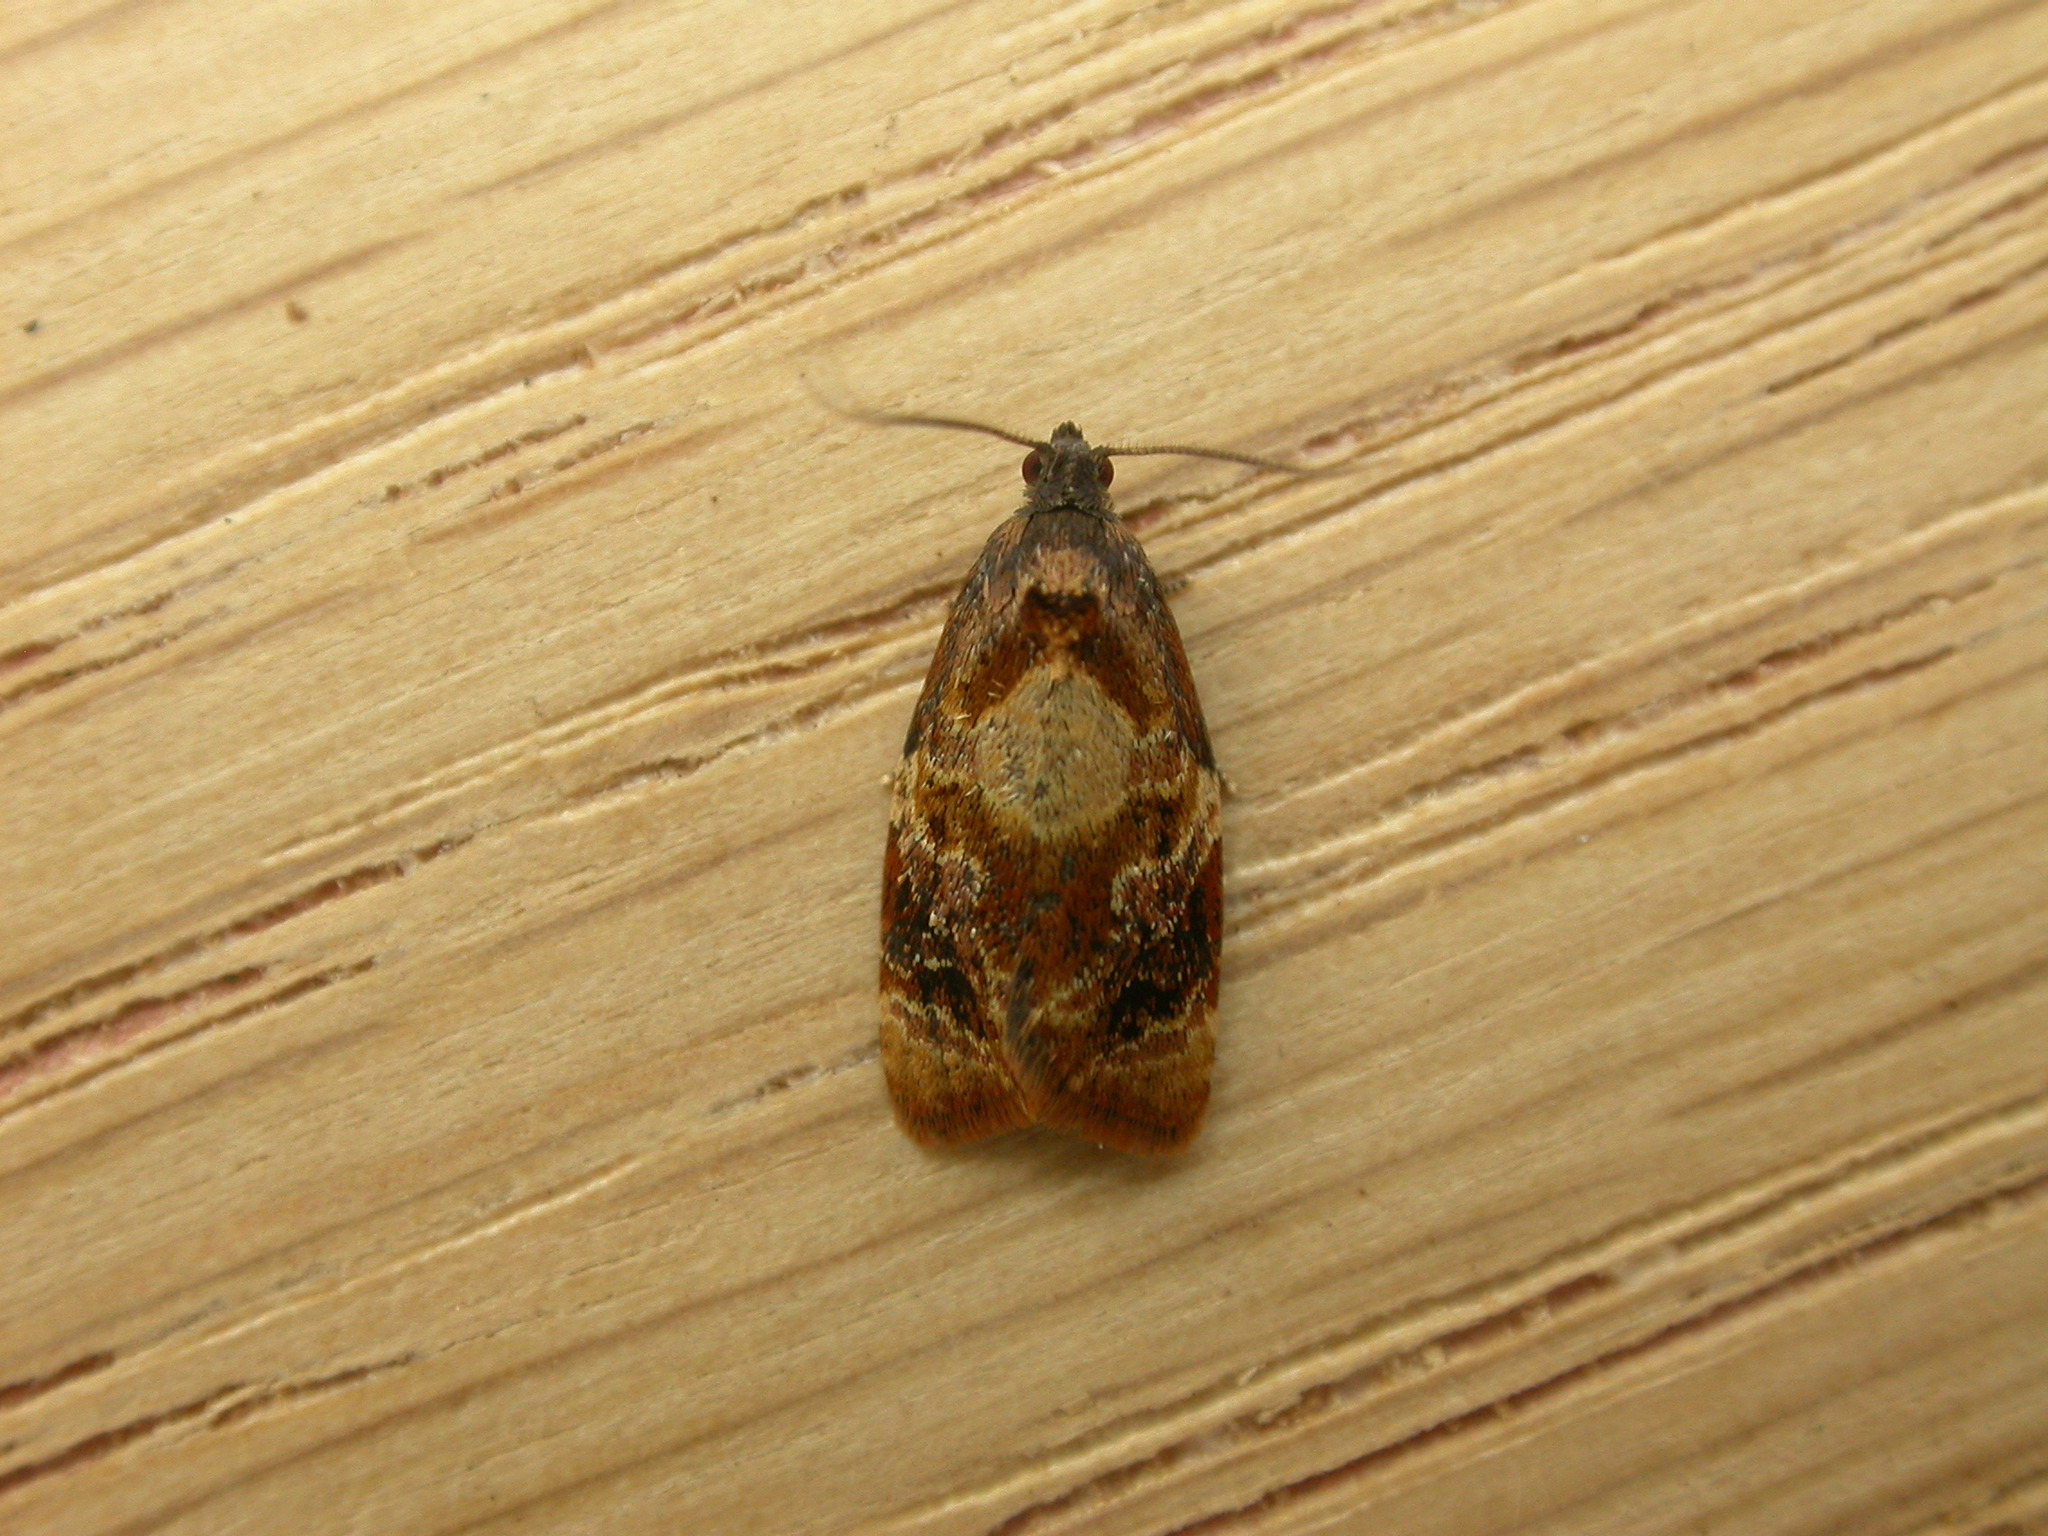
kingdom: Animalia
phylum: Arthropoda
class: Insecta
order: Lepidoptera
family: Tortricidae
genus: Ditula
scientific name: Ditula angustiorana
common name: Red-barred tortrix
